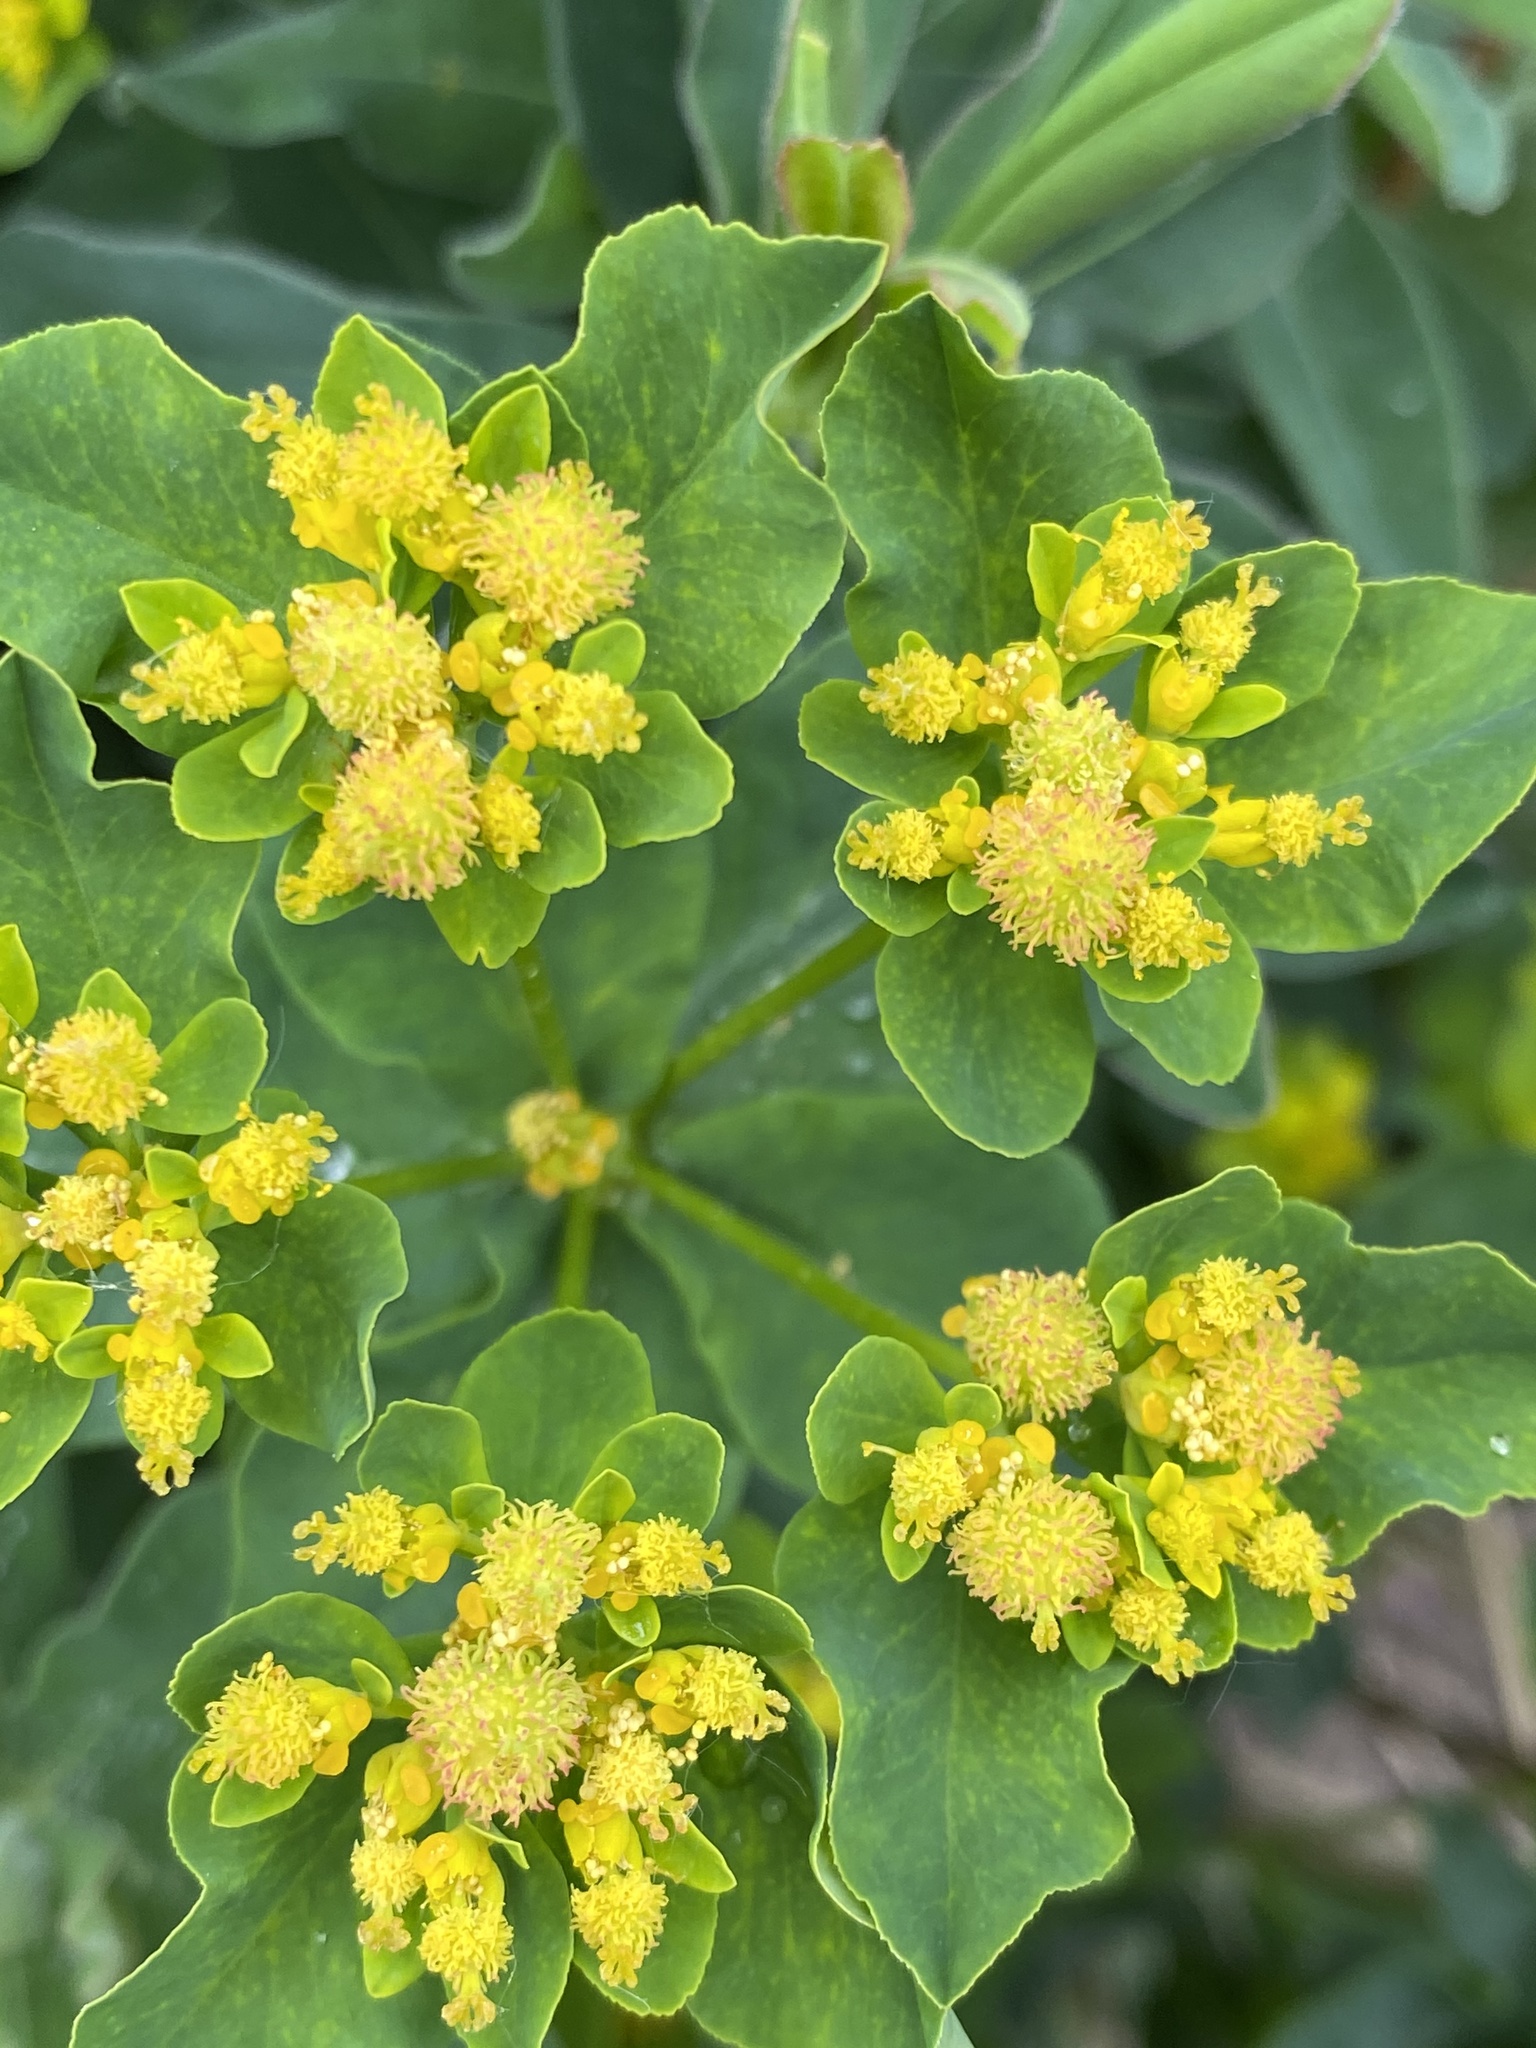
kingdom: Plantae
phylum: Tracheophyta
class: Magnoliopsida
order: Malpighiales
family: Euphorbiaceae
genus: Euphorbia
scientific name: Euphorbia epithymoides
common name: Cushion spurge
